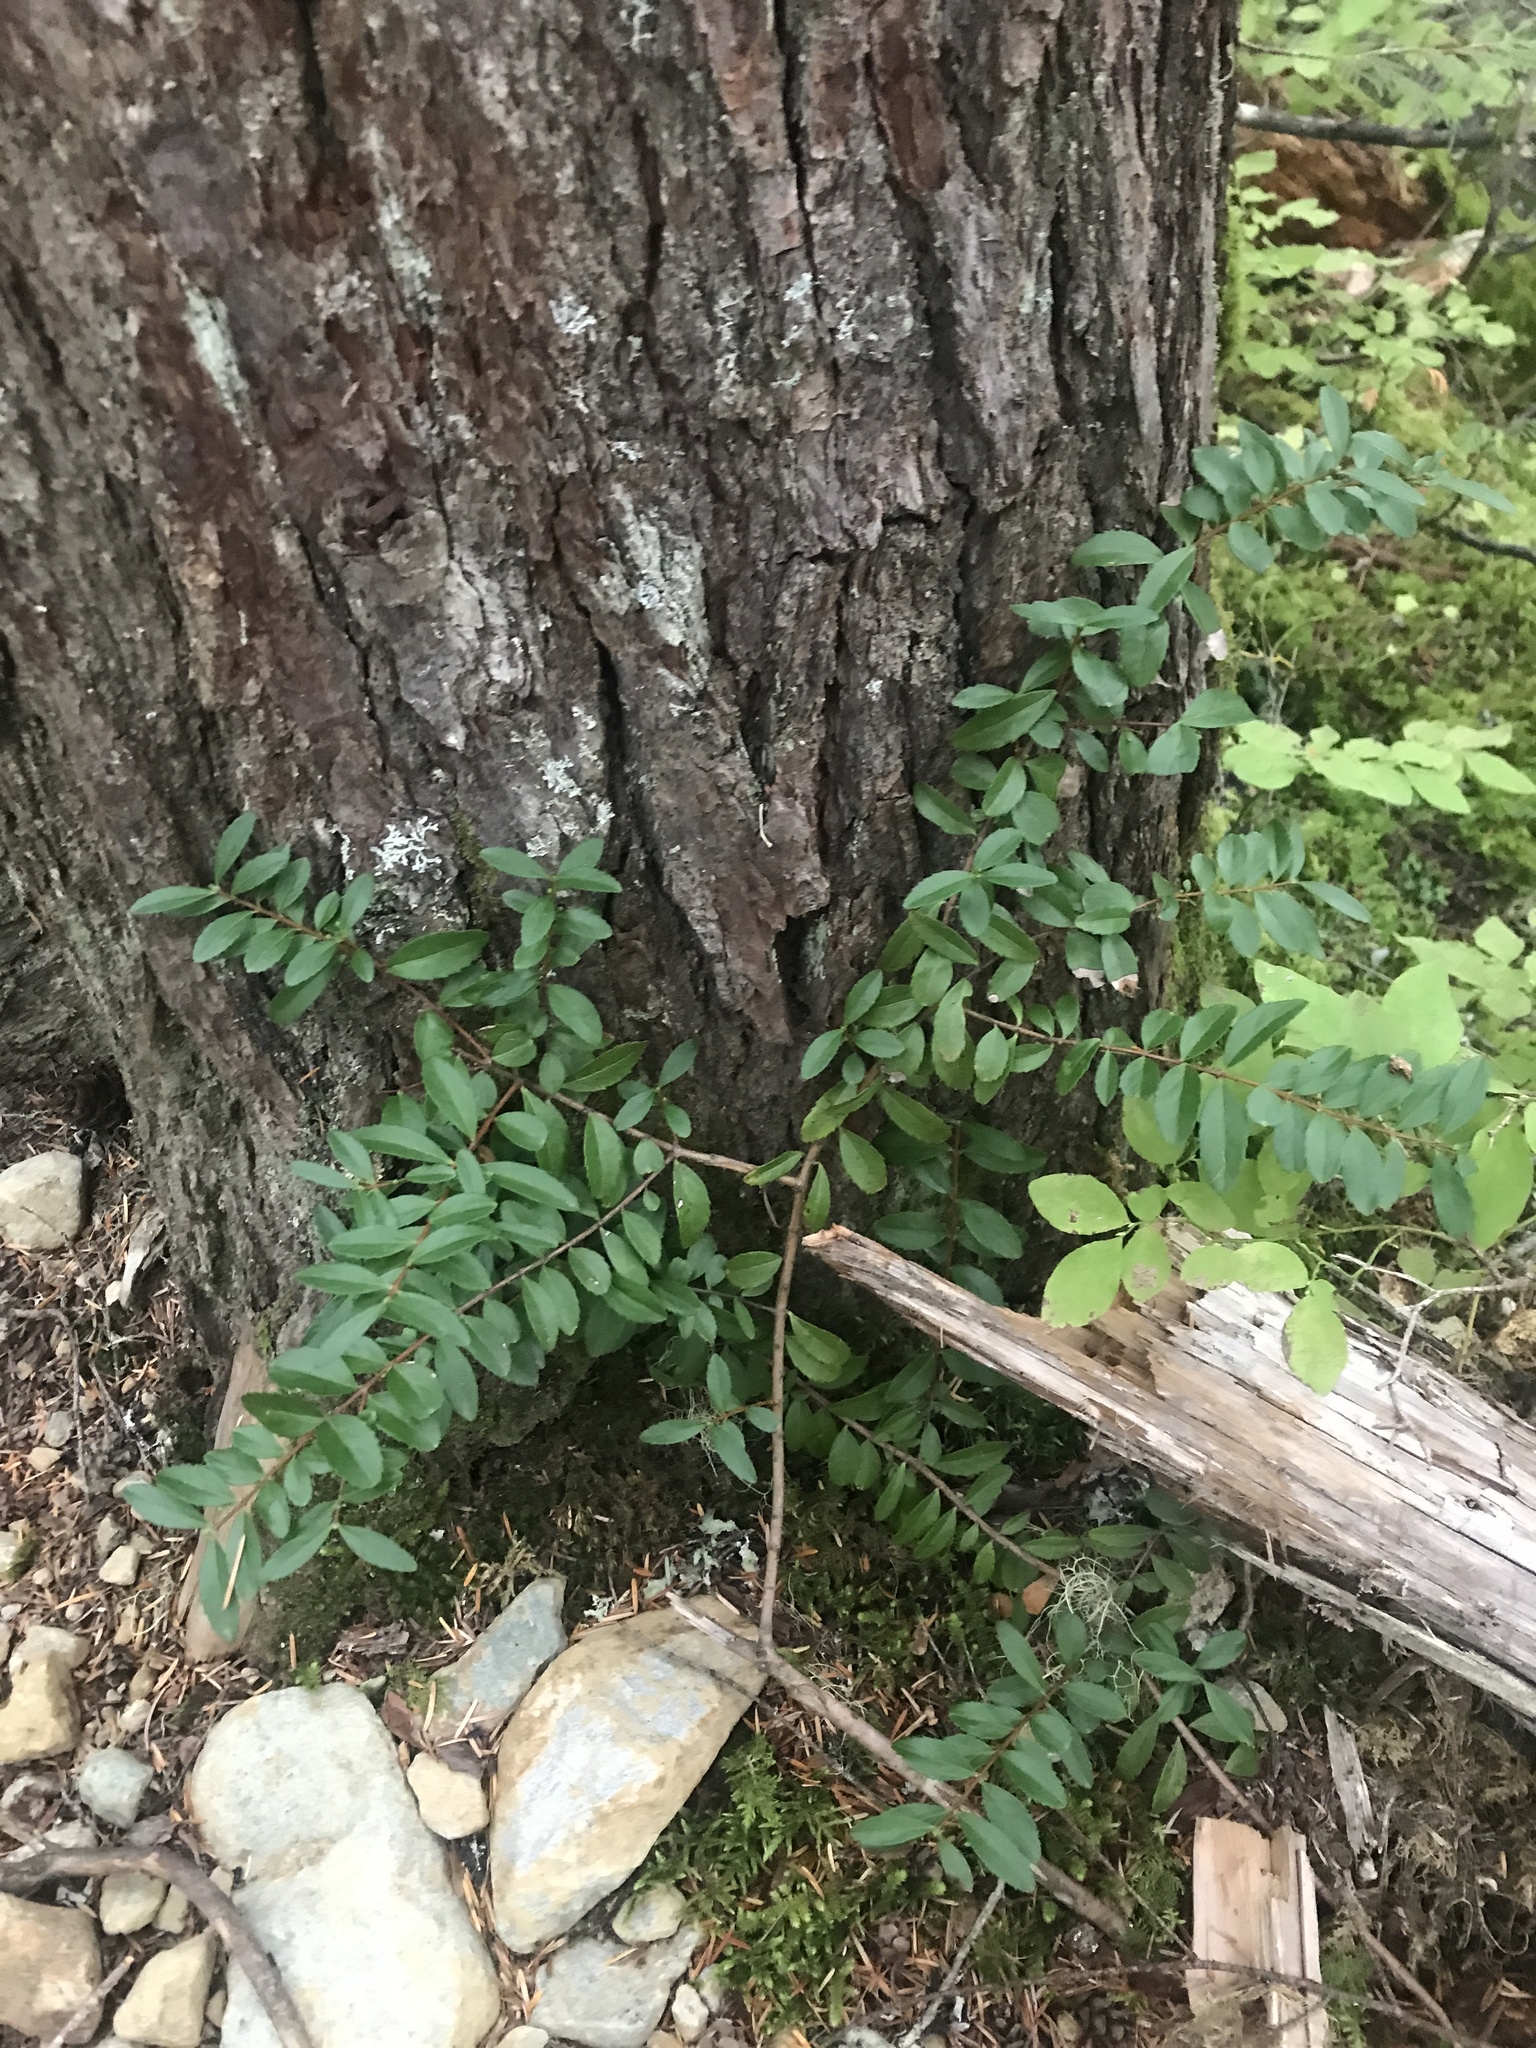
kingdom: Plantae
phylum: Tracheophyta
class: Magnoliopsida
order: Celastrales
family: Celastraceae
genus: Paxistima
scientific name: Paxistima myrsinites
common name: Mountain-lover
